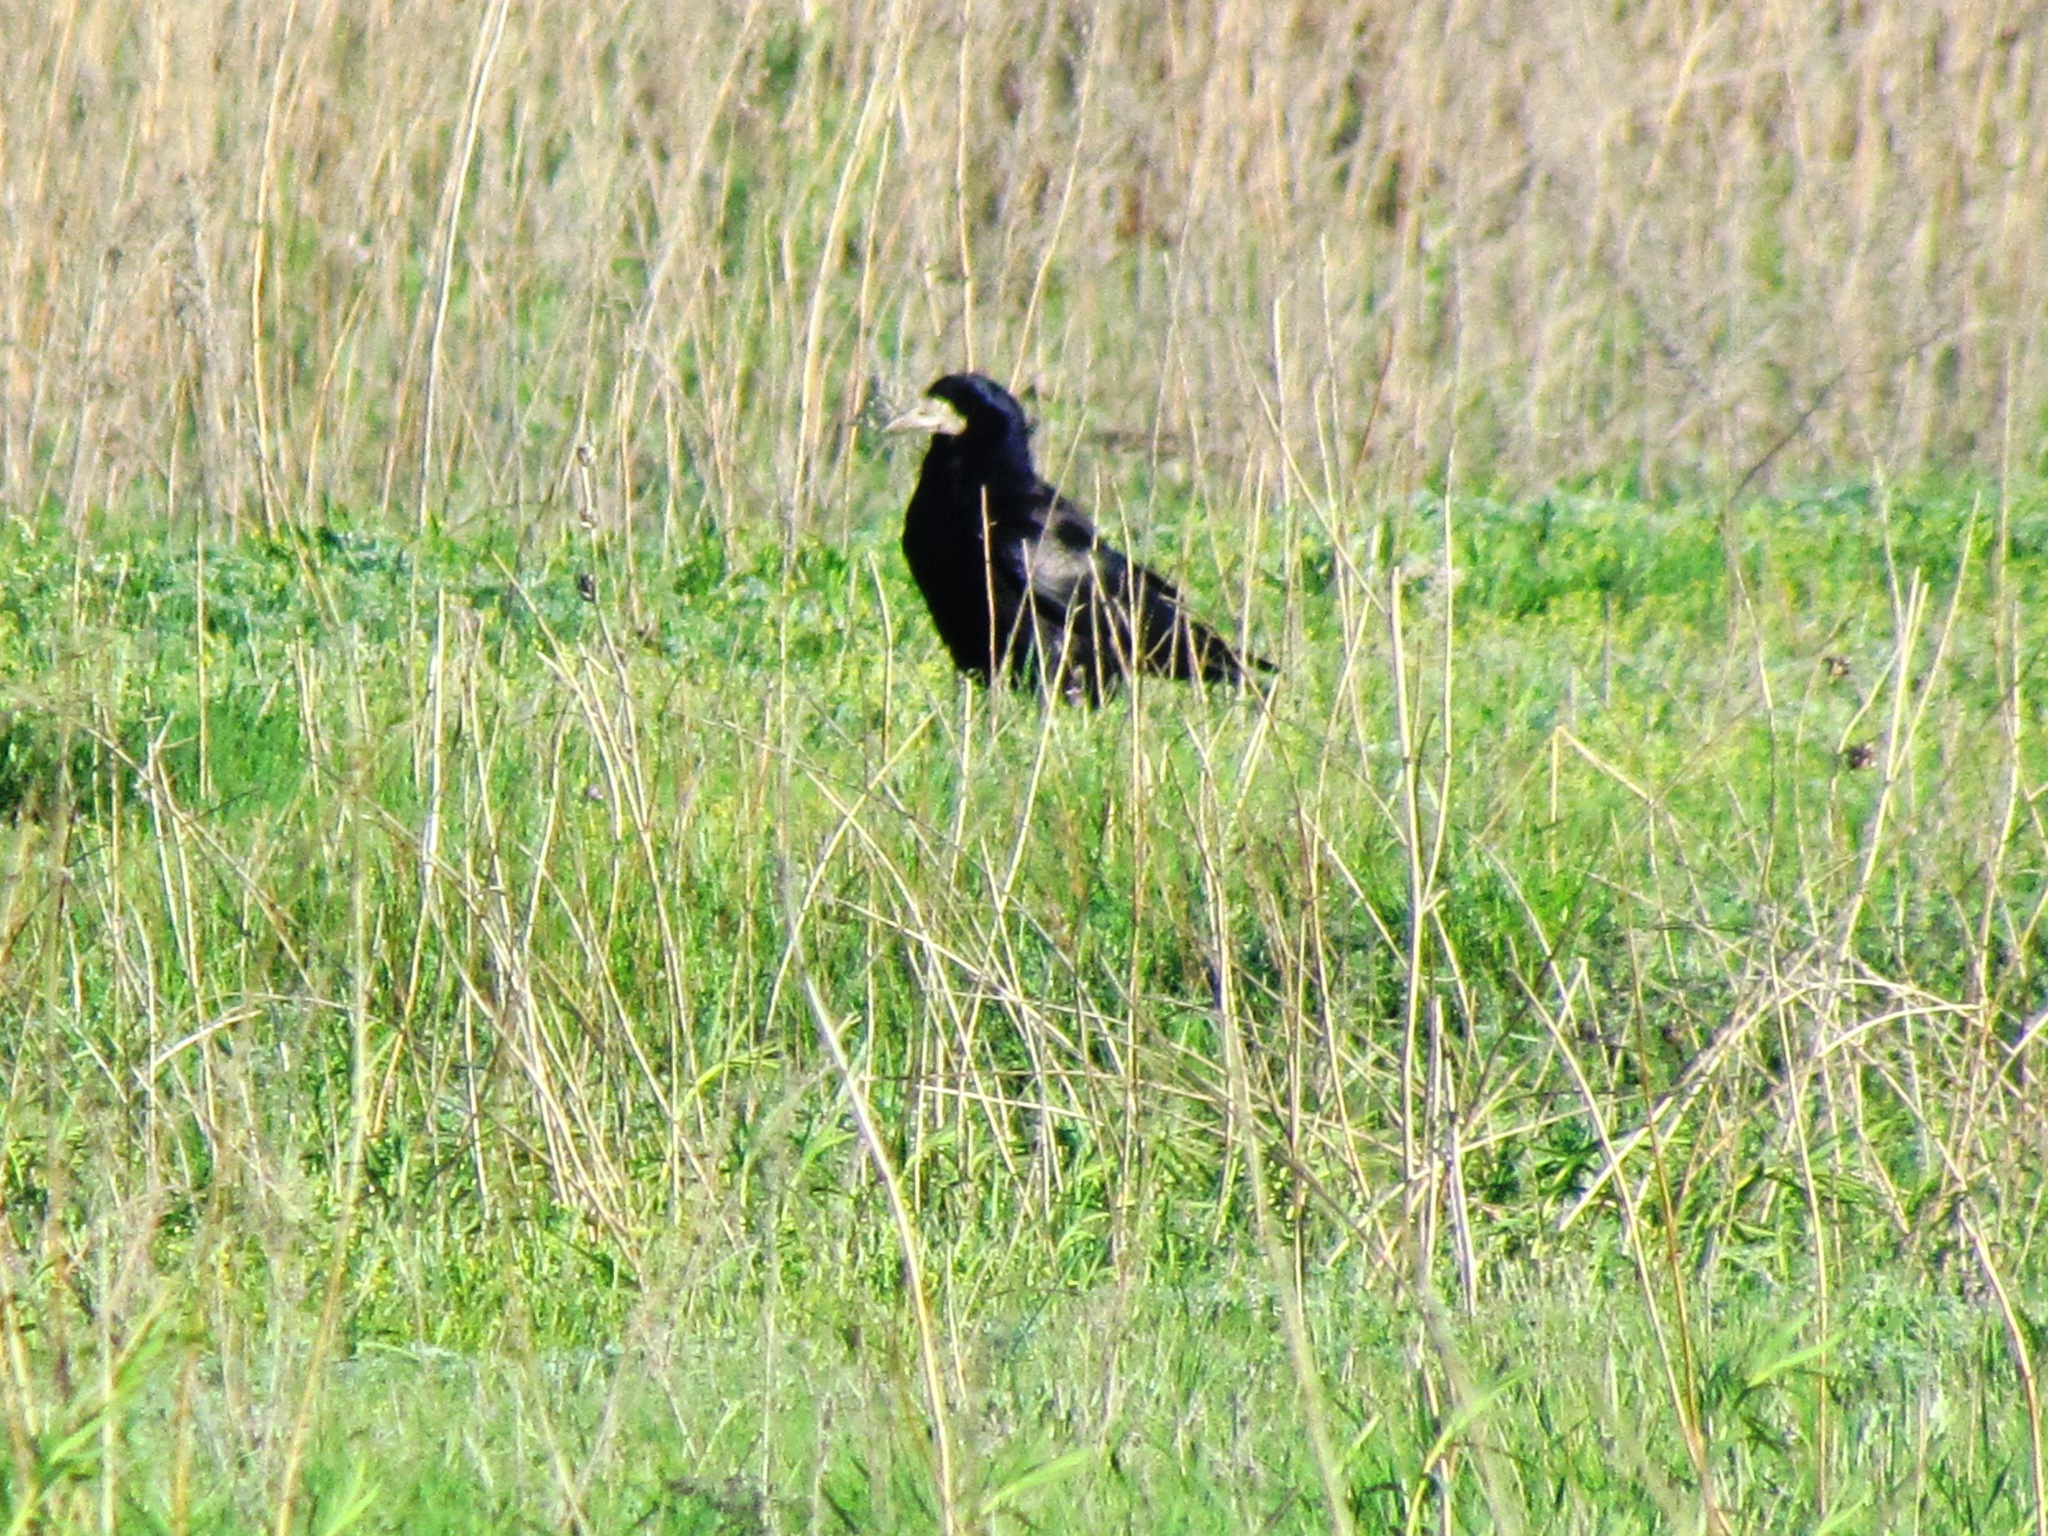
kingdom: Animalia
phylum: Chordata
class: Aves
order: Passeriformes
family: Corvidae
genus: Corvus
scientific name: Corvus frugilegus
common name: Rook
